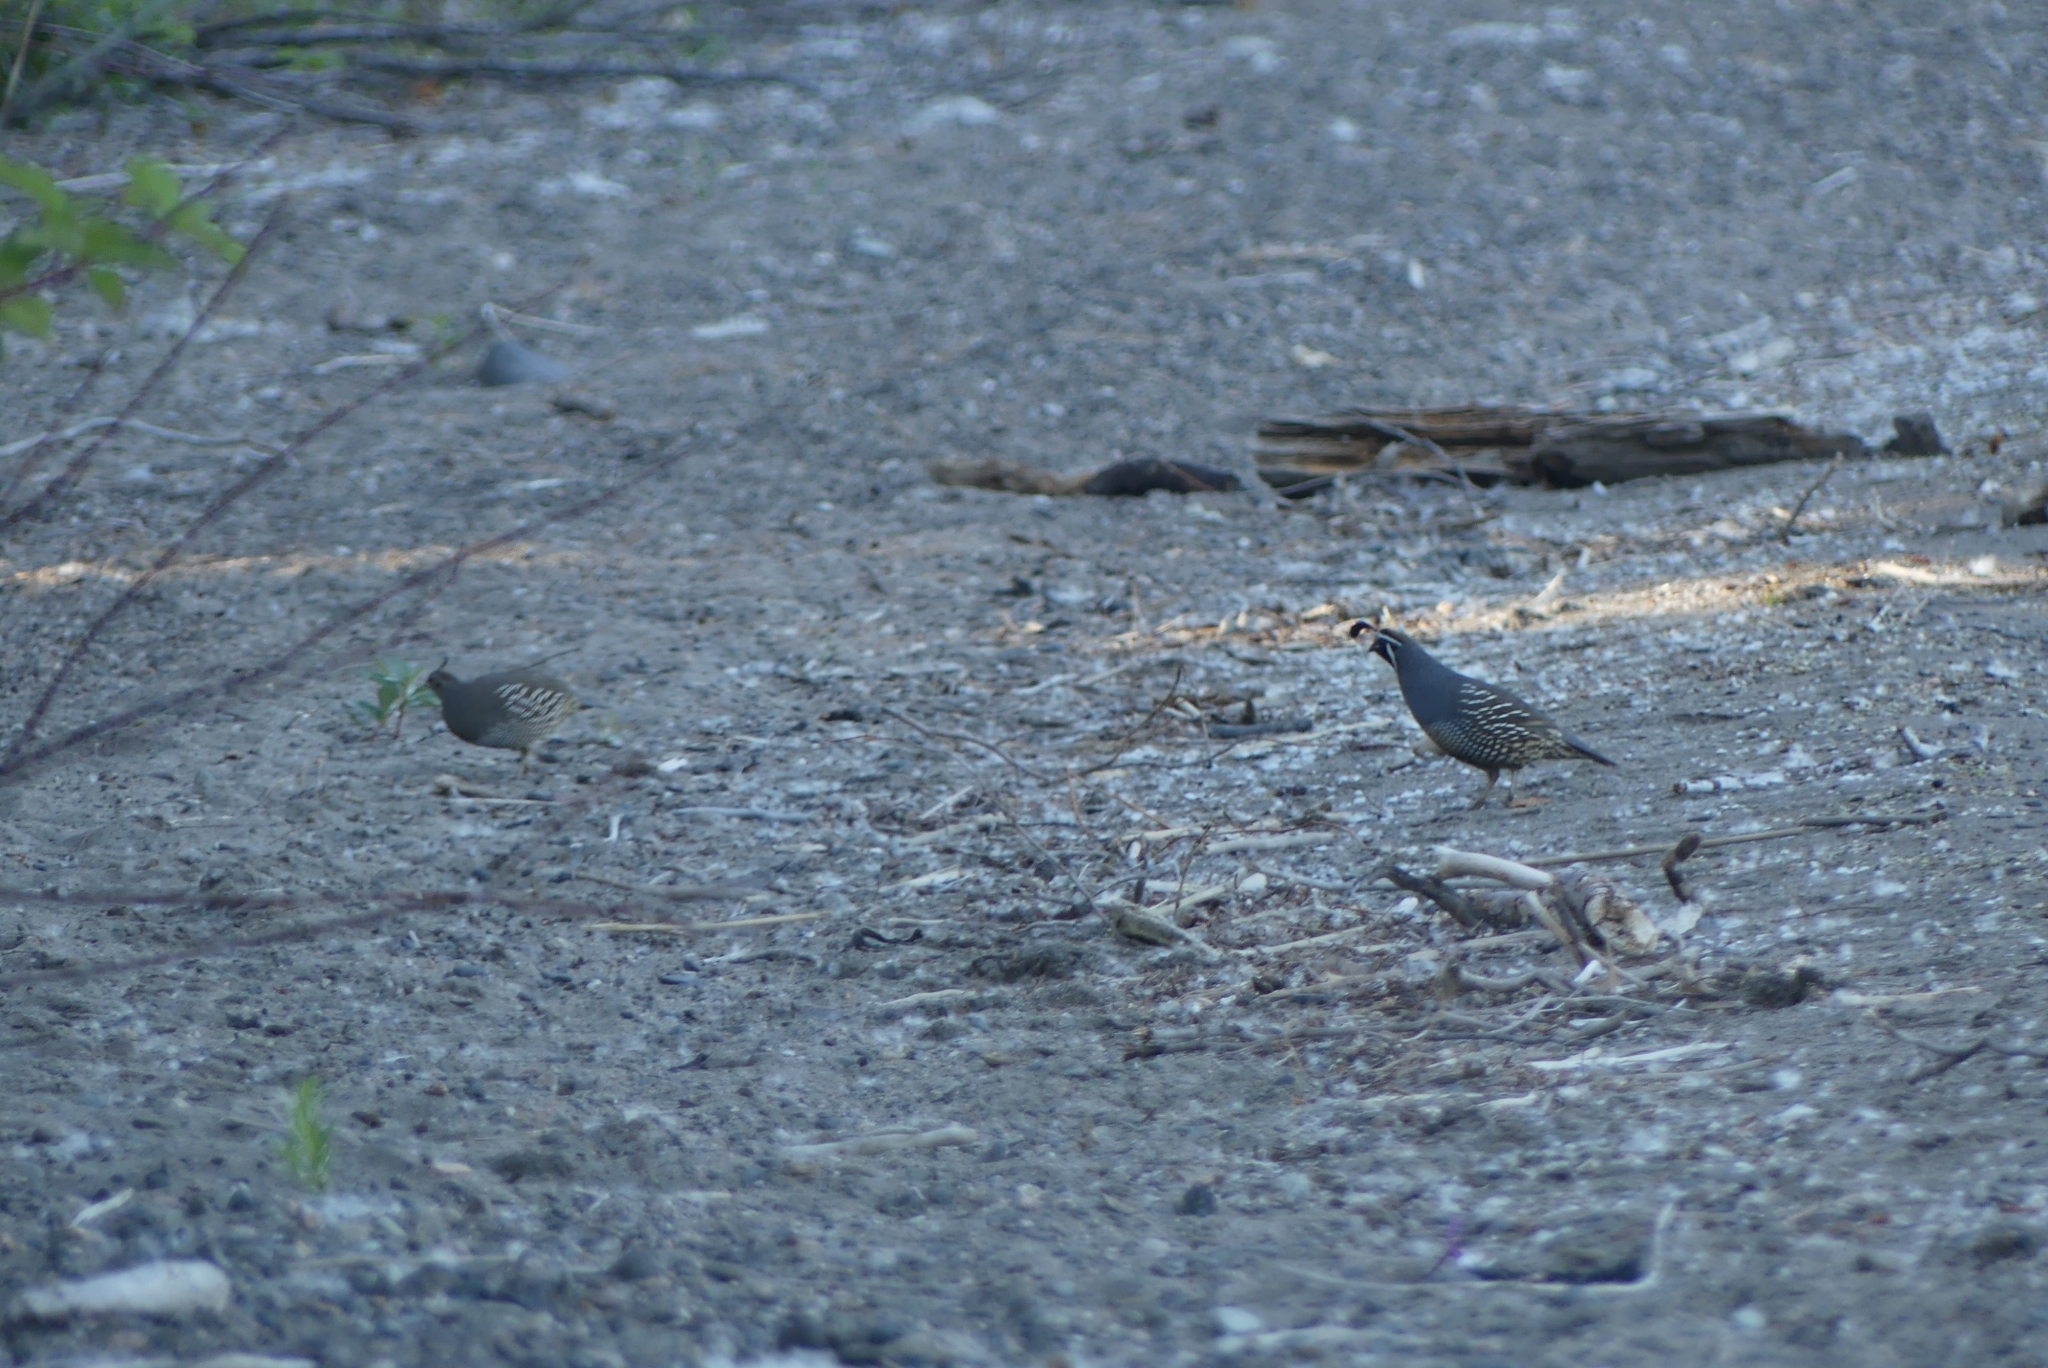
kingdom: Animalia
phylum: Chordata
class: Aves
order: Galliformes
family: Odontophoridae
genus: Callipepla
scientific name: Callipepla californica
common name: California quail
